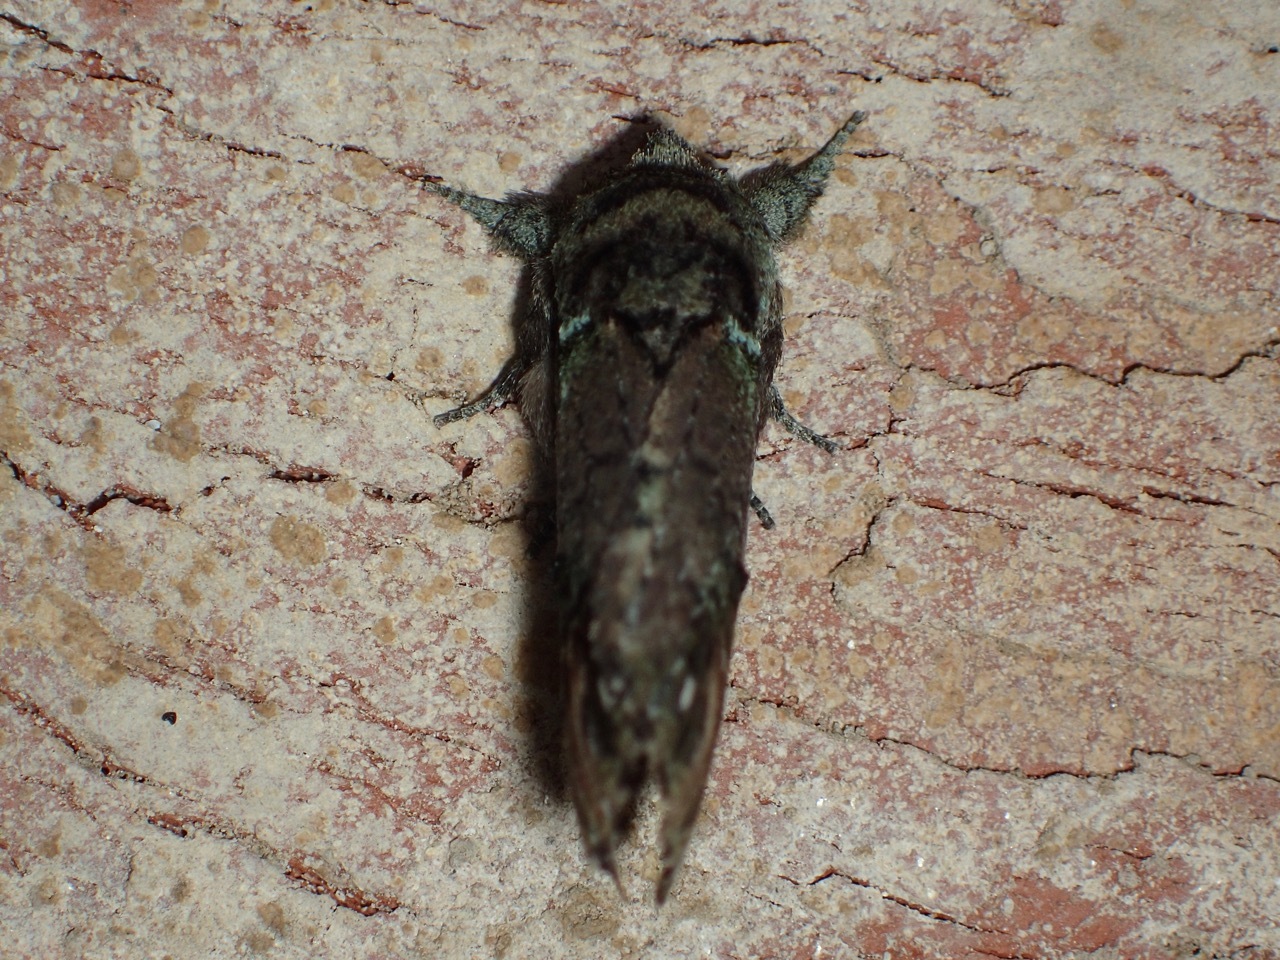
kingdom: Animalia
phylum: Arthropoda
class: Insecta
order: Lepidoptera
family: Notodontidae
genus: Schizura
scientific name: Schizura
